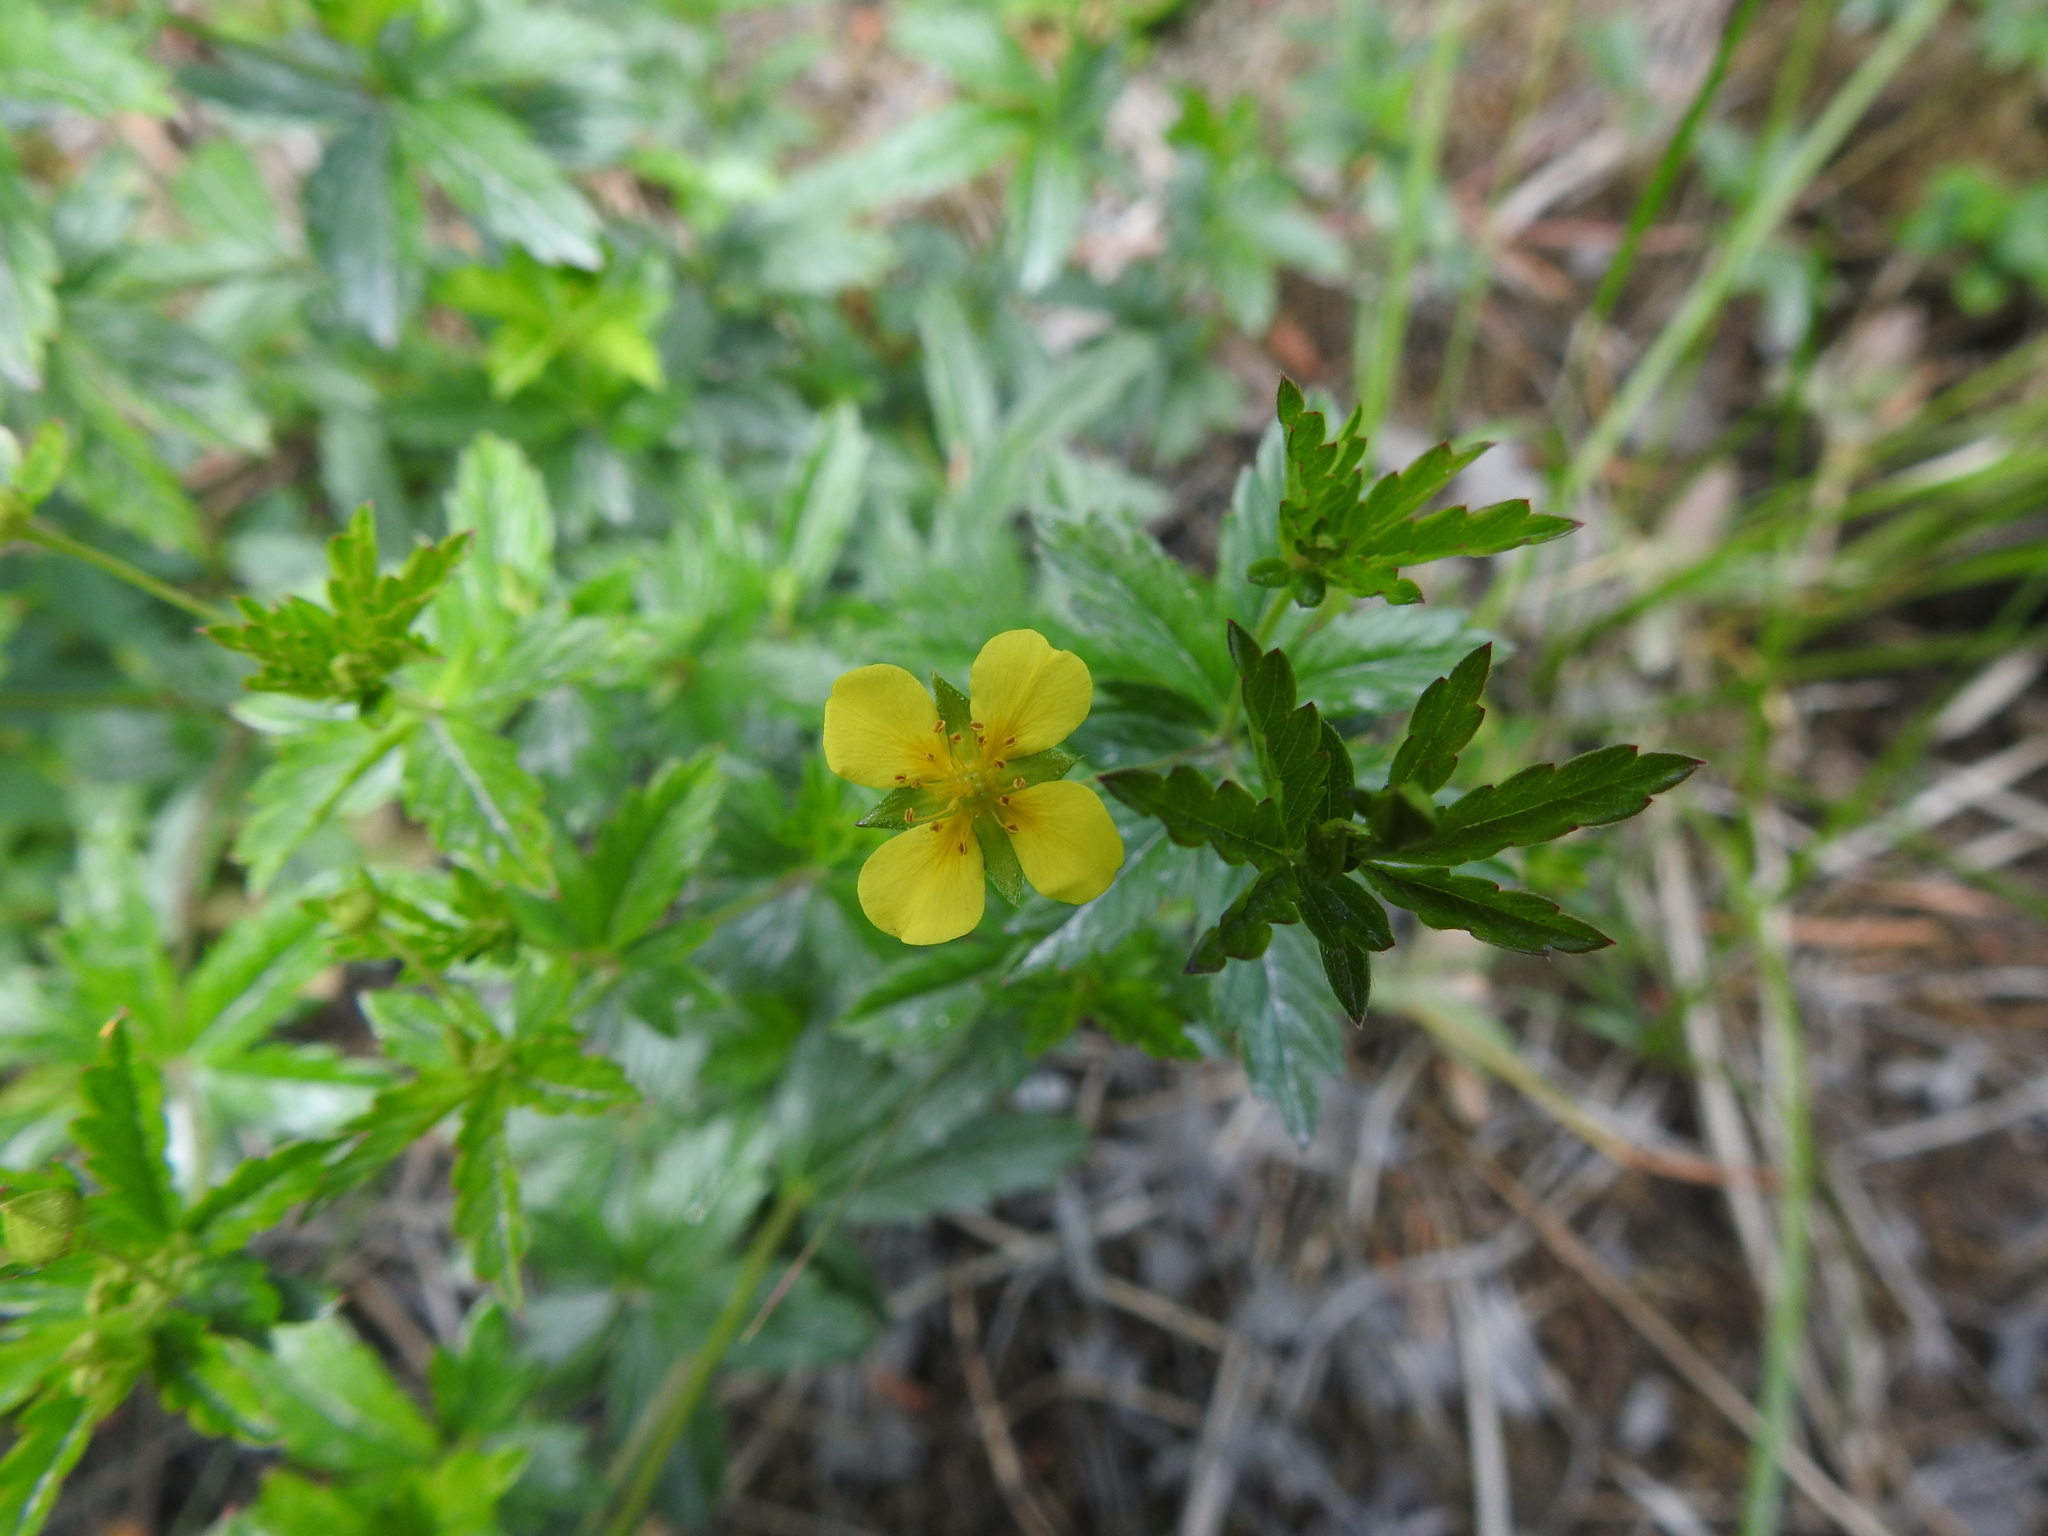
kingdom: Plantae
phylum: Tracheophyta
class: Magnoliopsida
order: Rosales
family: Rosaceae
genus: Potentilla
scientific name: Potentilla erecta
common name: Tormentil
